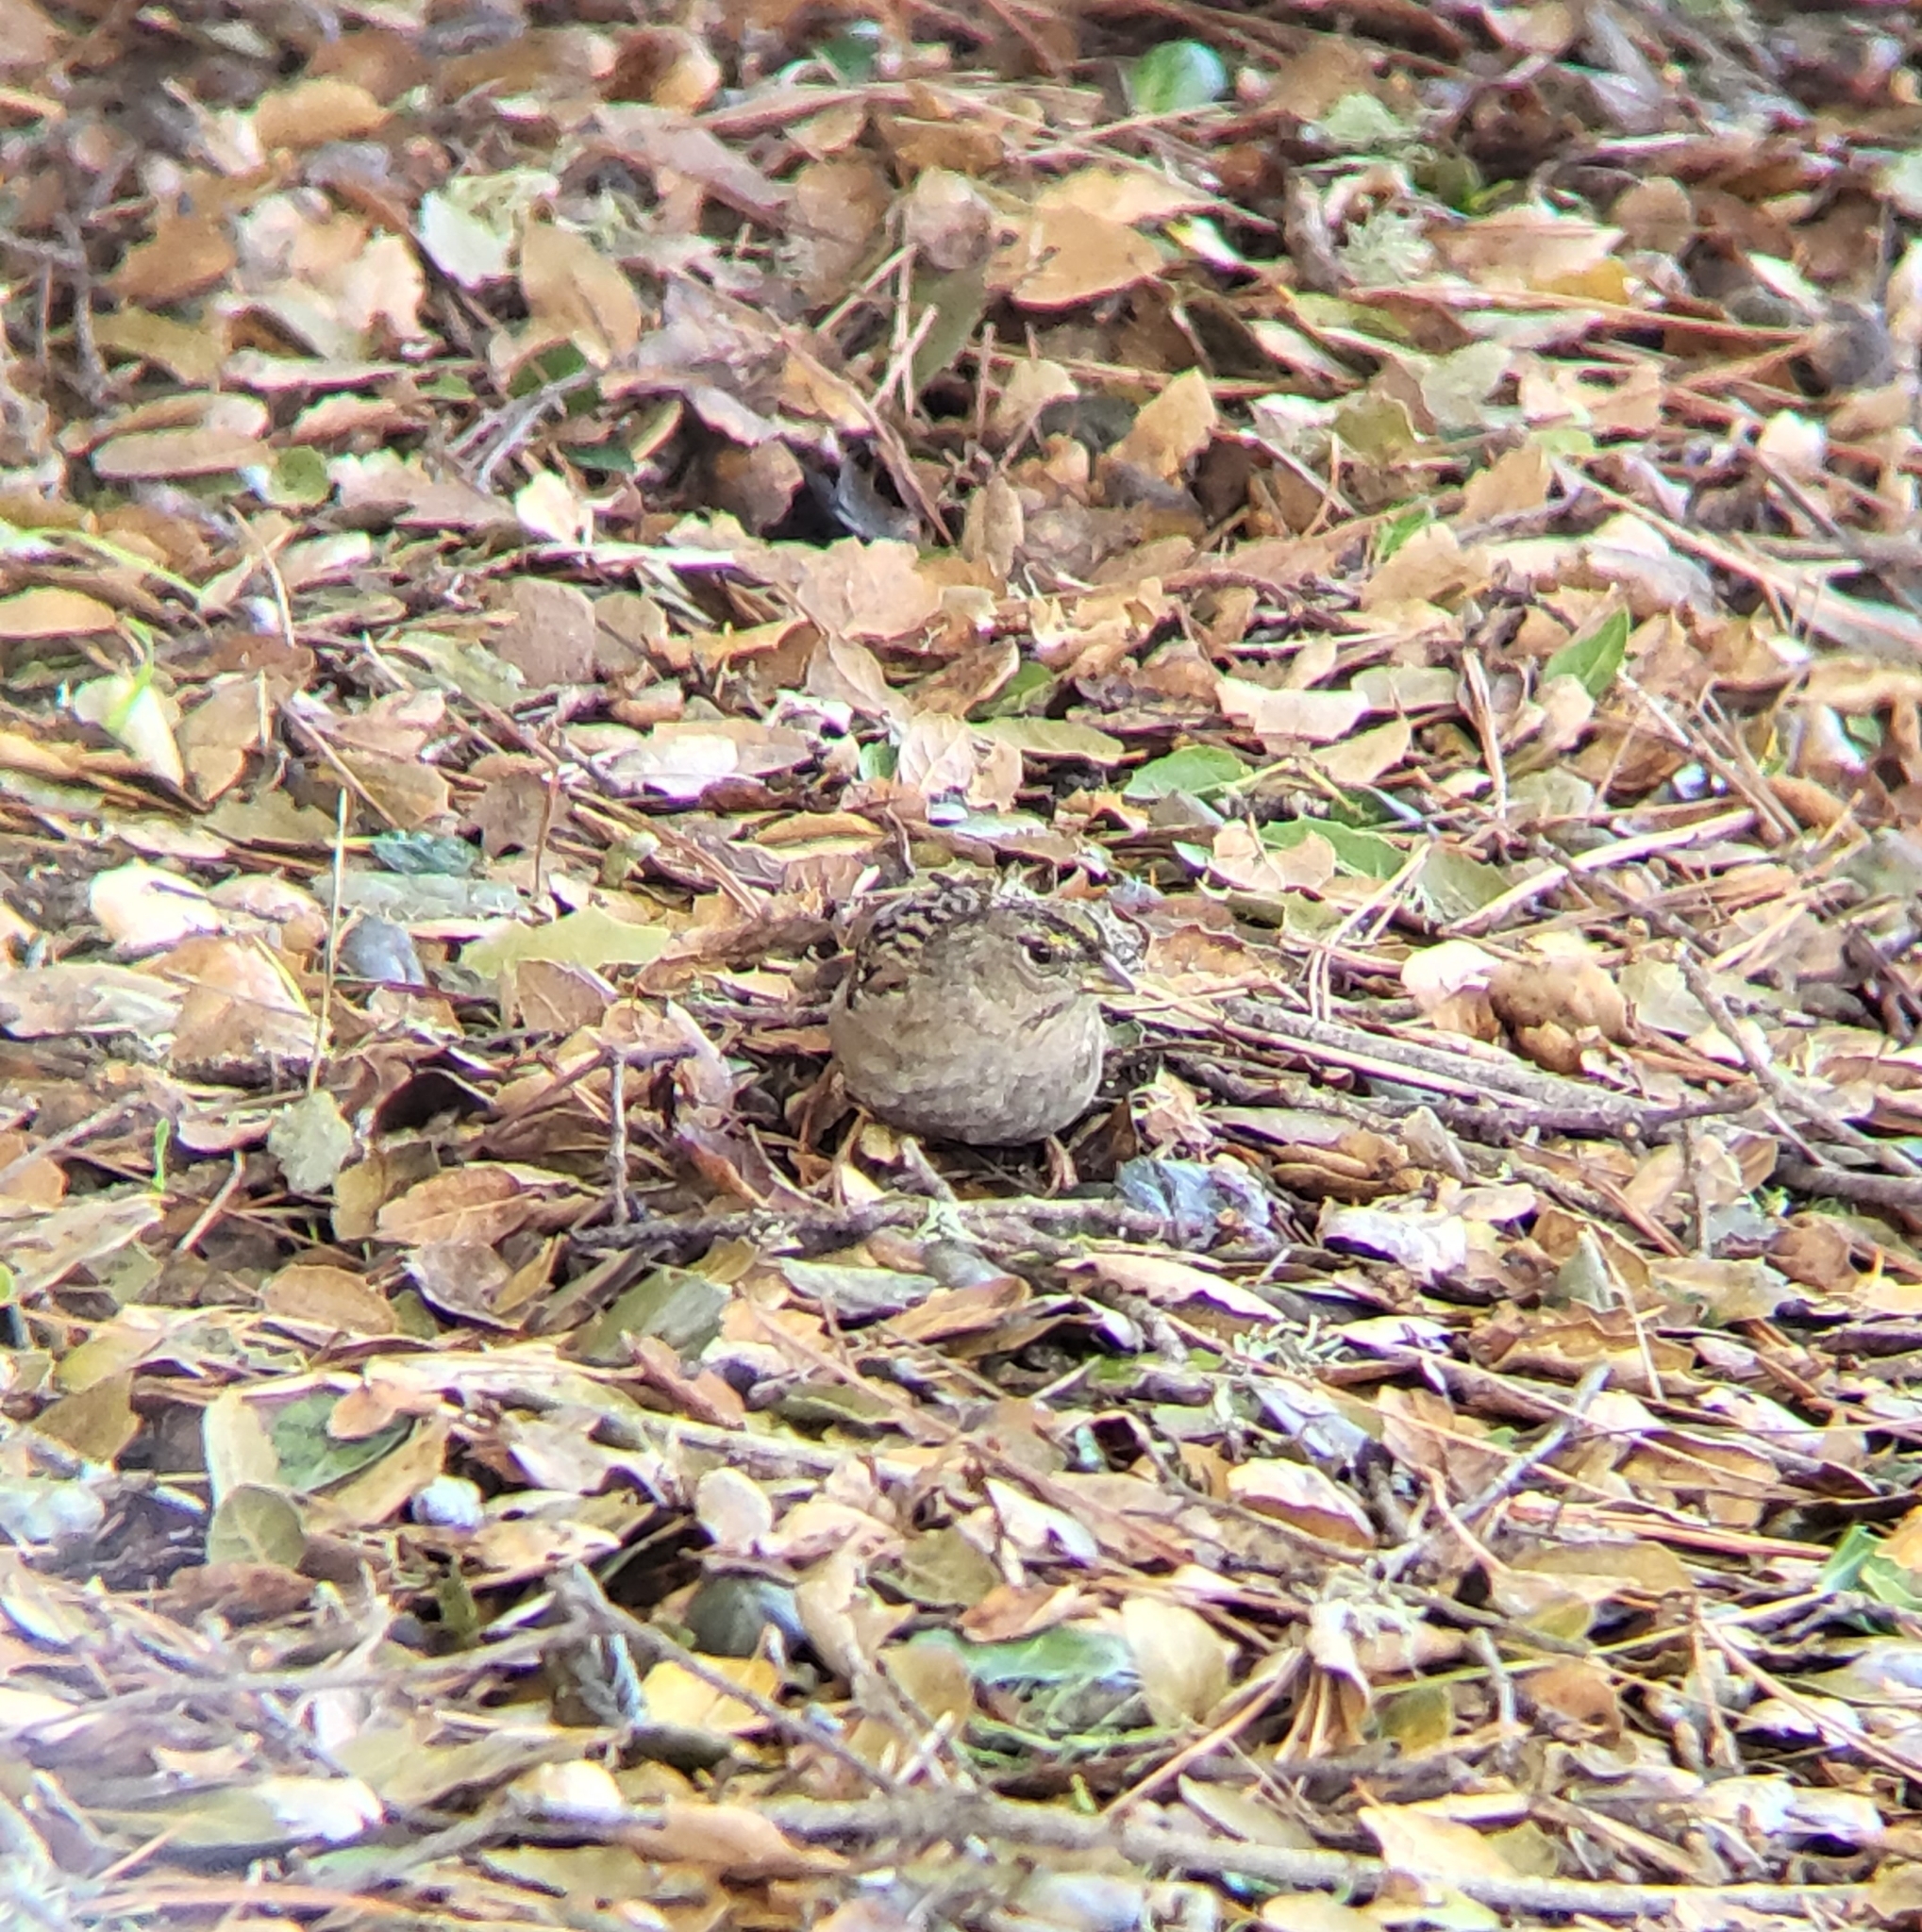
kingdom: Animalia
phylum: Chordata
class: Aves
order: Passeriformes
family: Passerellidae
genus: Zonotrichia
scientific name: Zonotrichia atricapilla
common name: Golden-crowned sparrow
